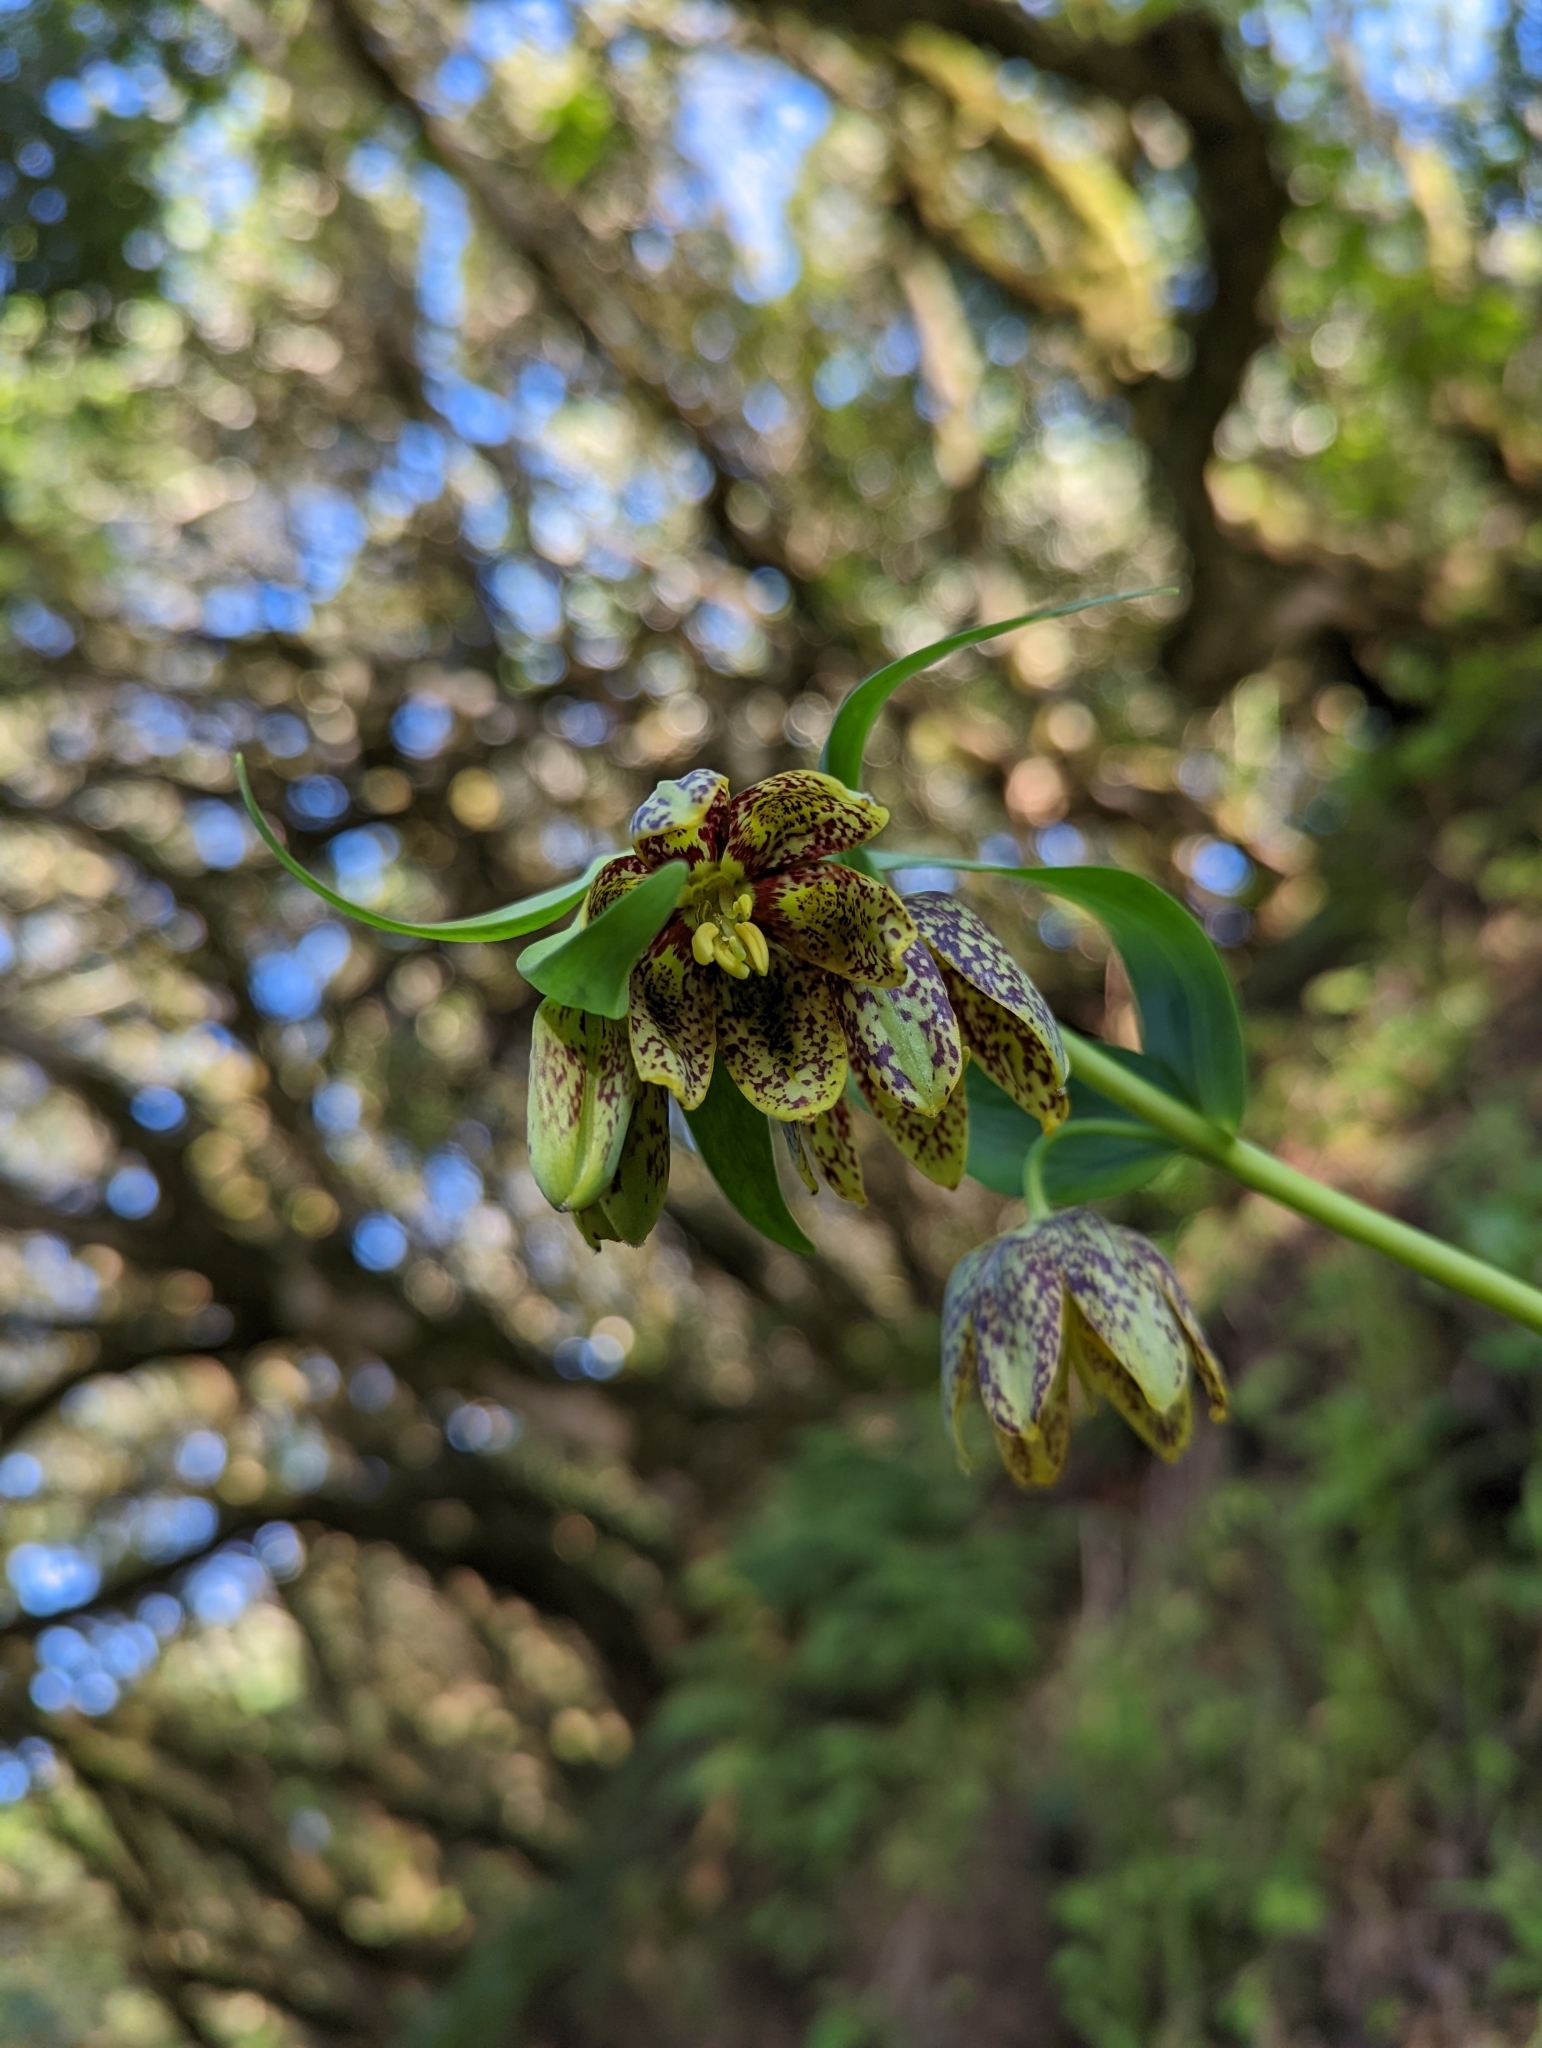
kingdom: Plantae
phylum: Tracheophyta
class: Liliopsida
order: Liliales
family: Liliaceae
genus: Fritillaria
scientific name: Fritillaria affinis
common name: Ojai fritillary
